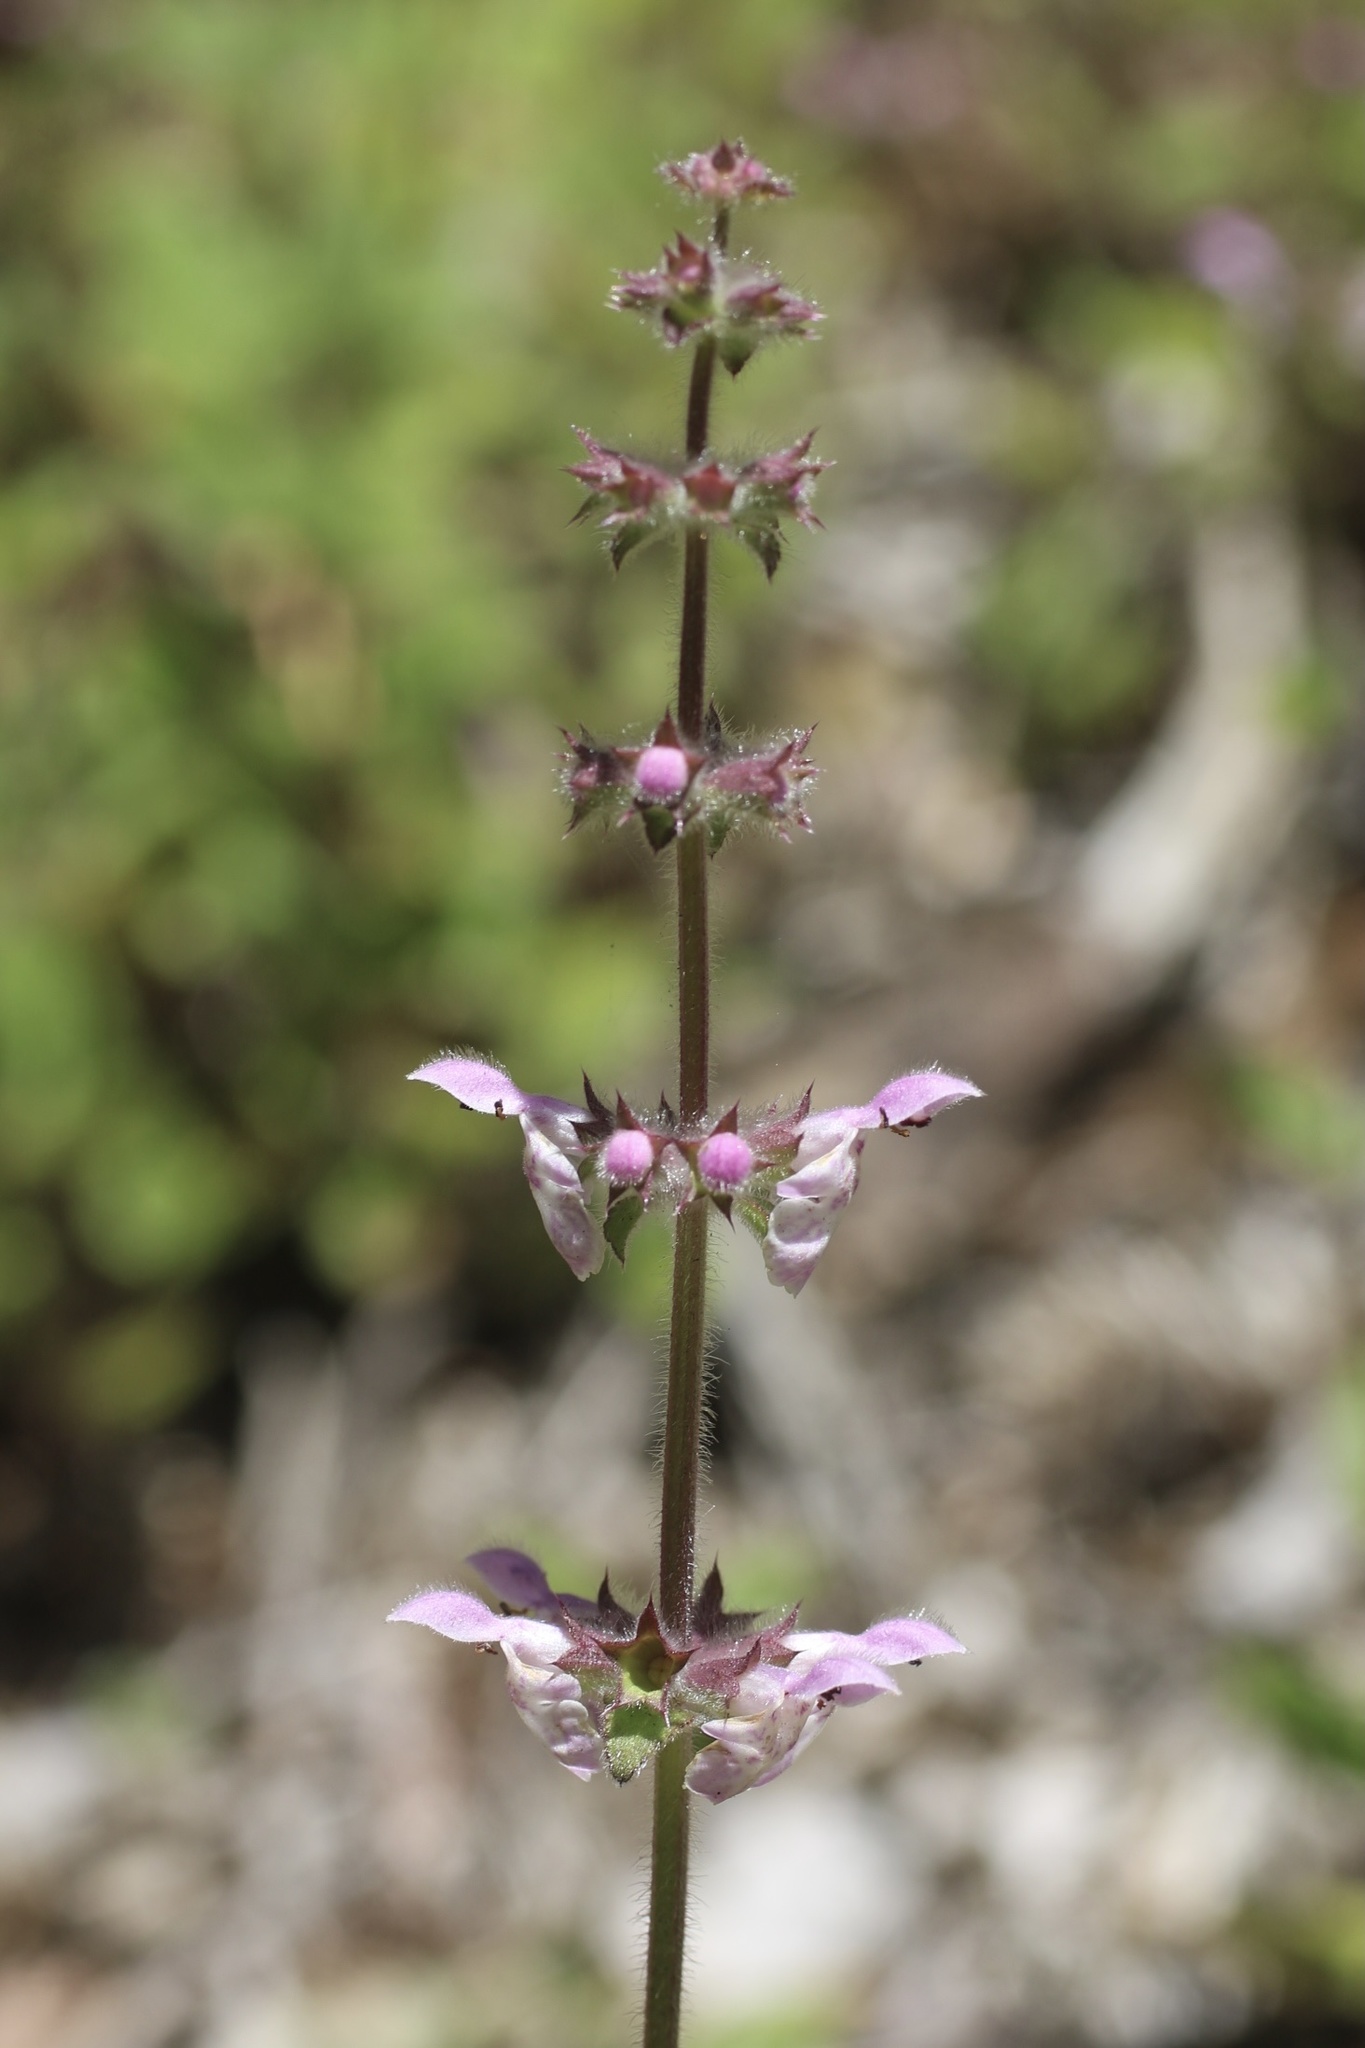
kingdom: Plantae
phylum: Tracheophyta
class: Magnoliopsida
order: Lamiales
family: Lamiaceae
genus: Stachys
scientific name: Stachys rigida
